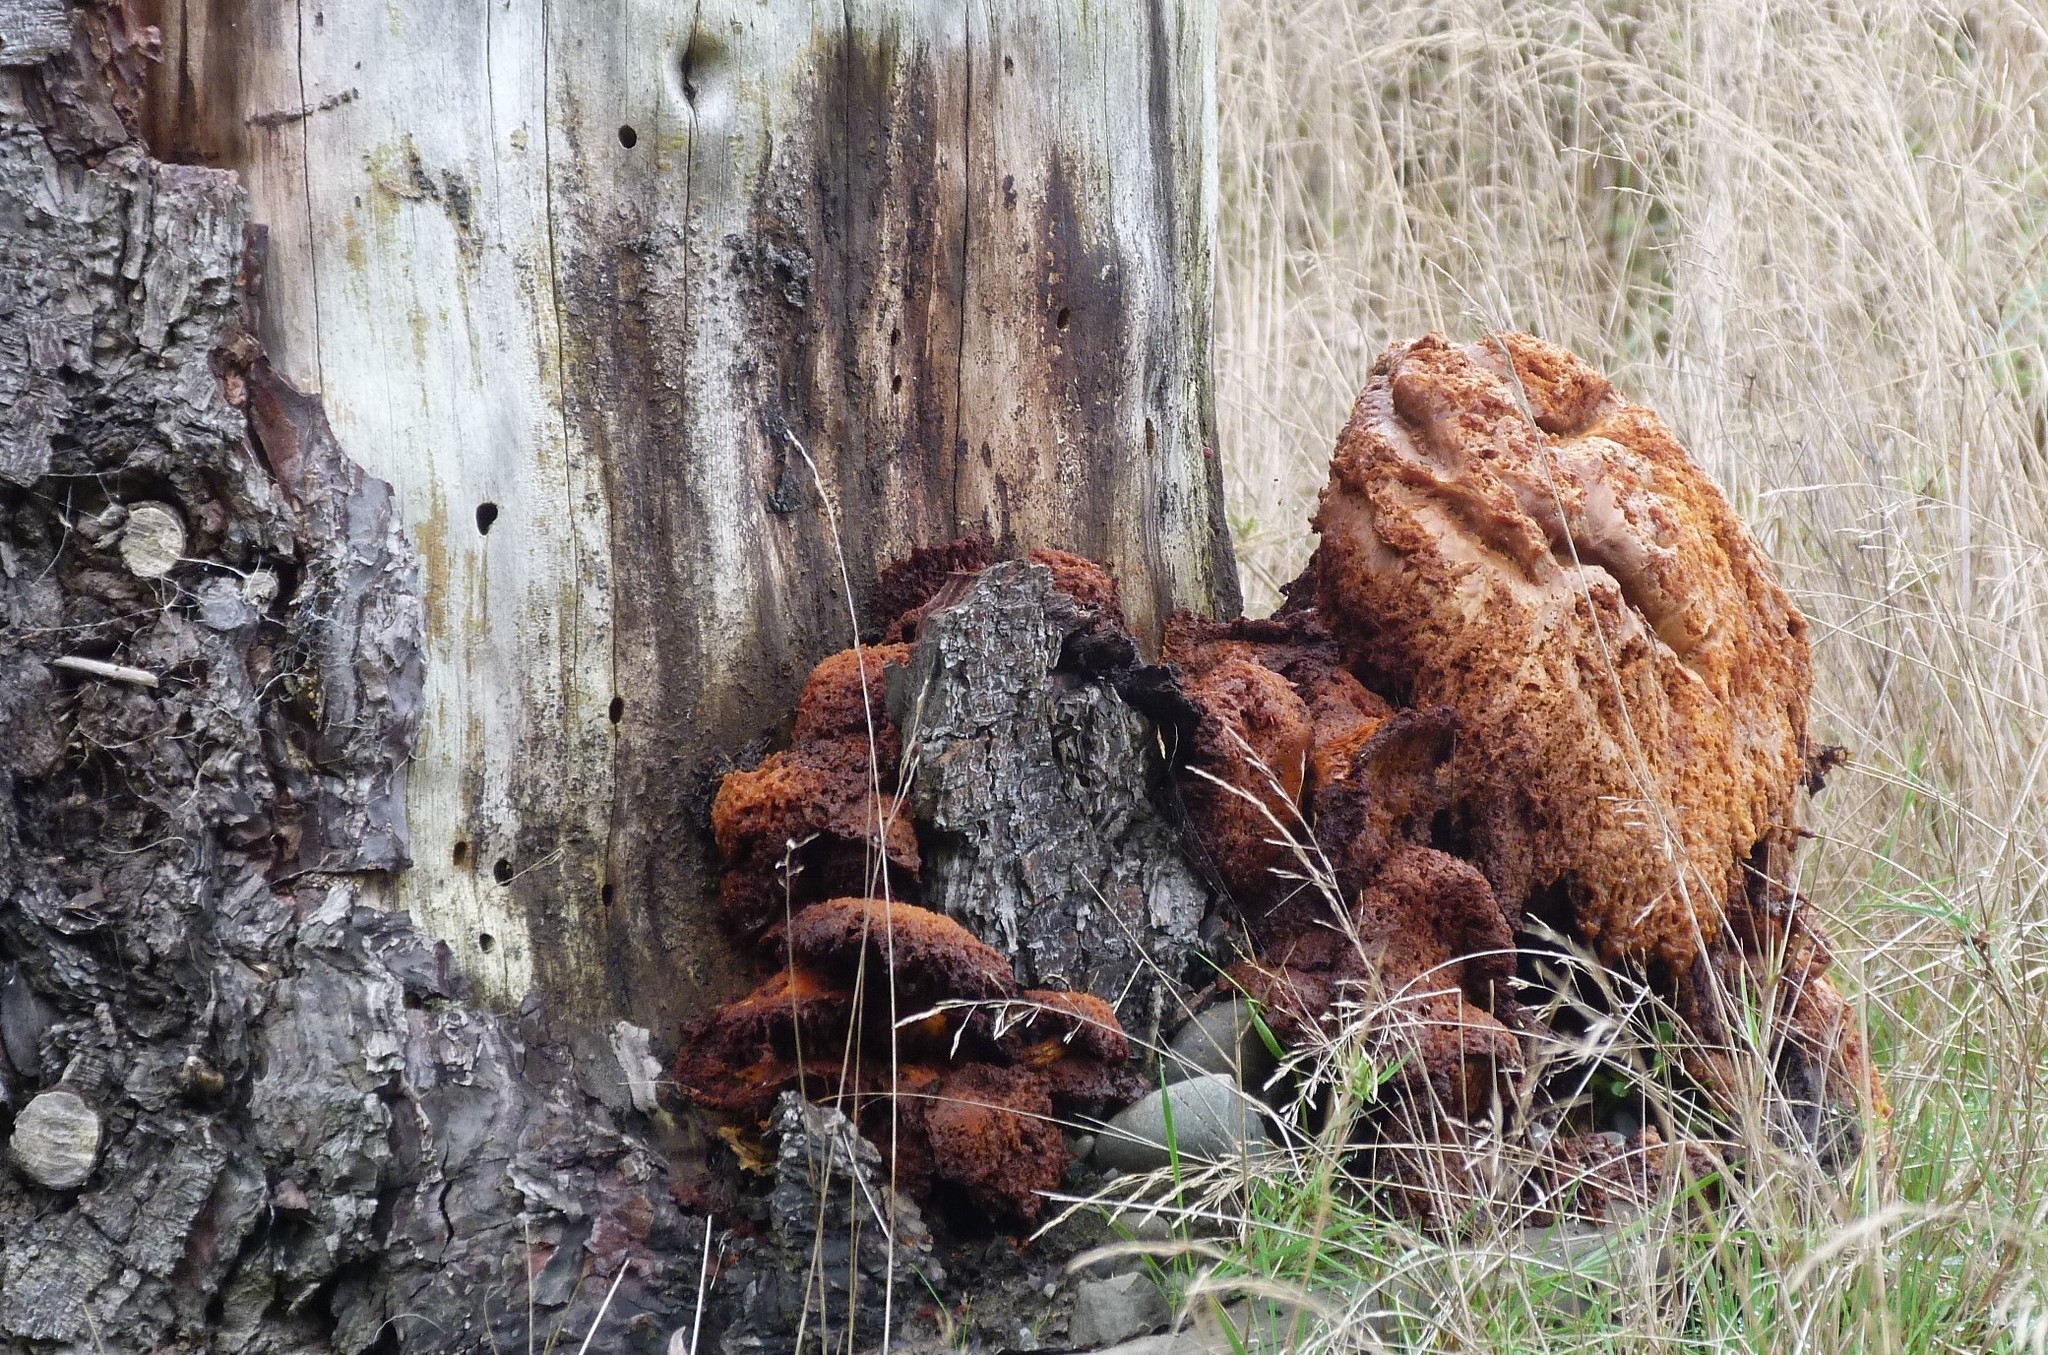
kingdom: Fungi
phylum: Basidiomycota
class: Agaricomycetes
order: Agaricales
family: Hymenogastraceae
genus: Gymnopilus
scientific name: Gymnopilus junonius
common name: Spectacular rustgill
